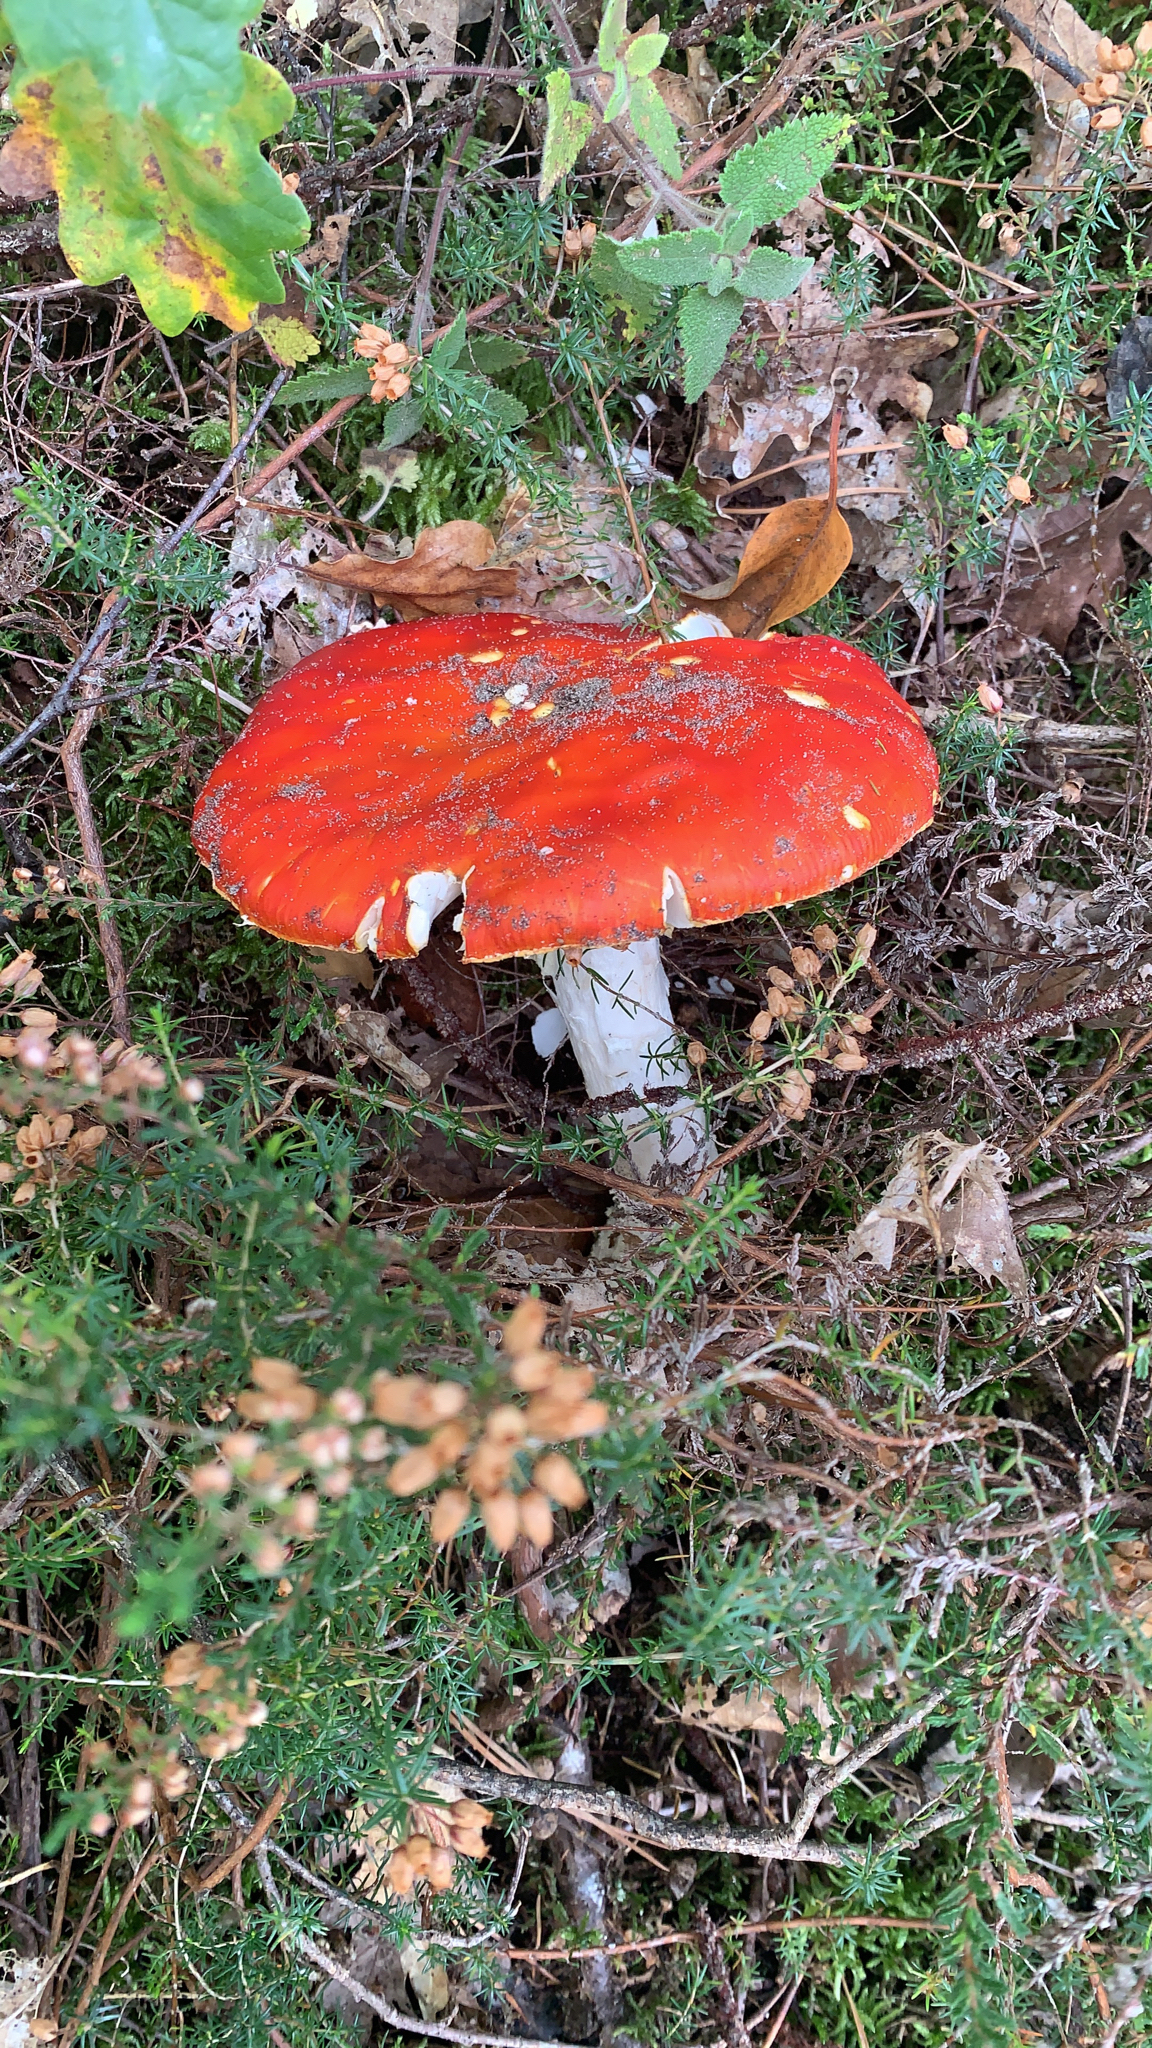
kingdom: Fungi
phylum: Basidiomycota
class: Agaricomycetes
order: Agaricales
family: Amanitaceae
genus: Amanita
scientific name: Amanita muscaria
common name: Fly agaric
